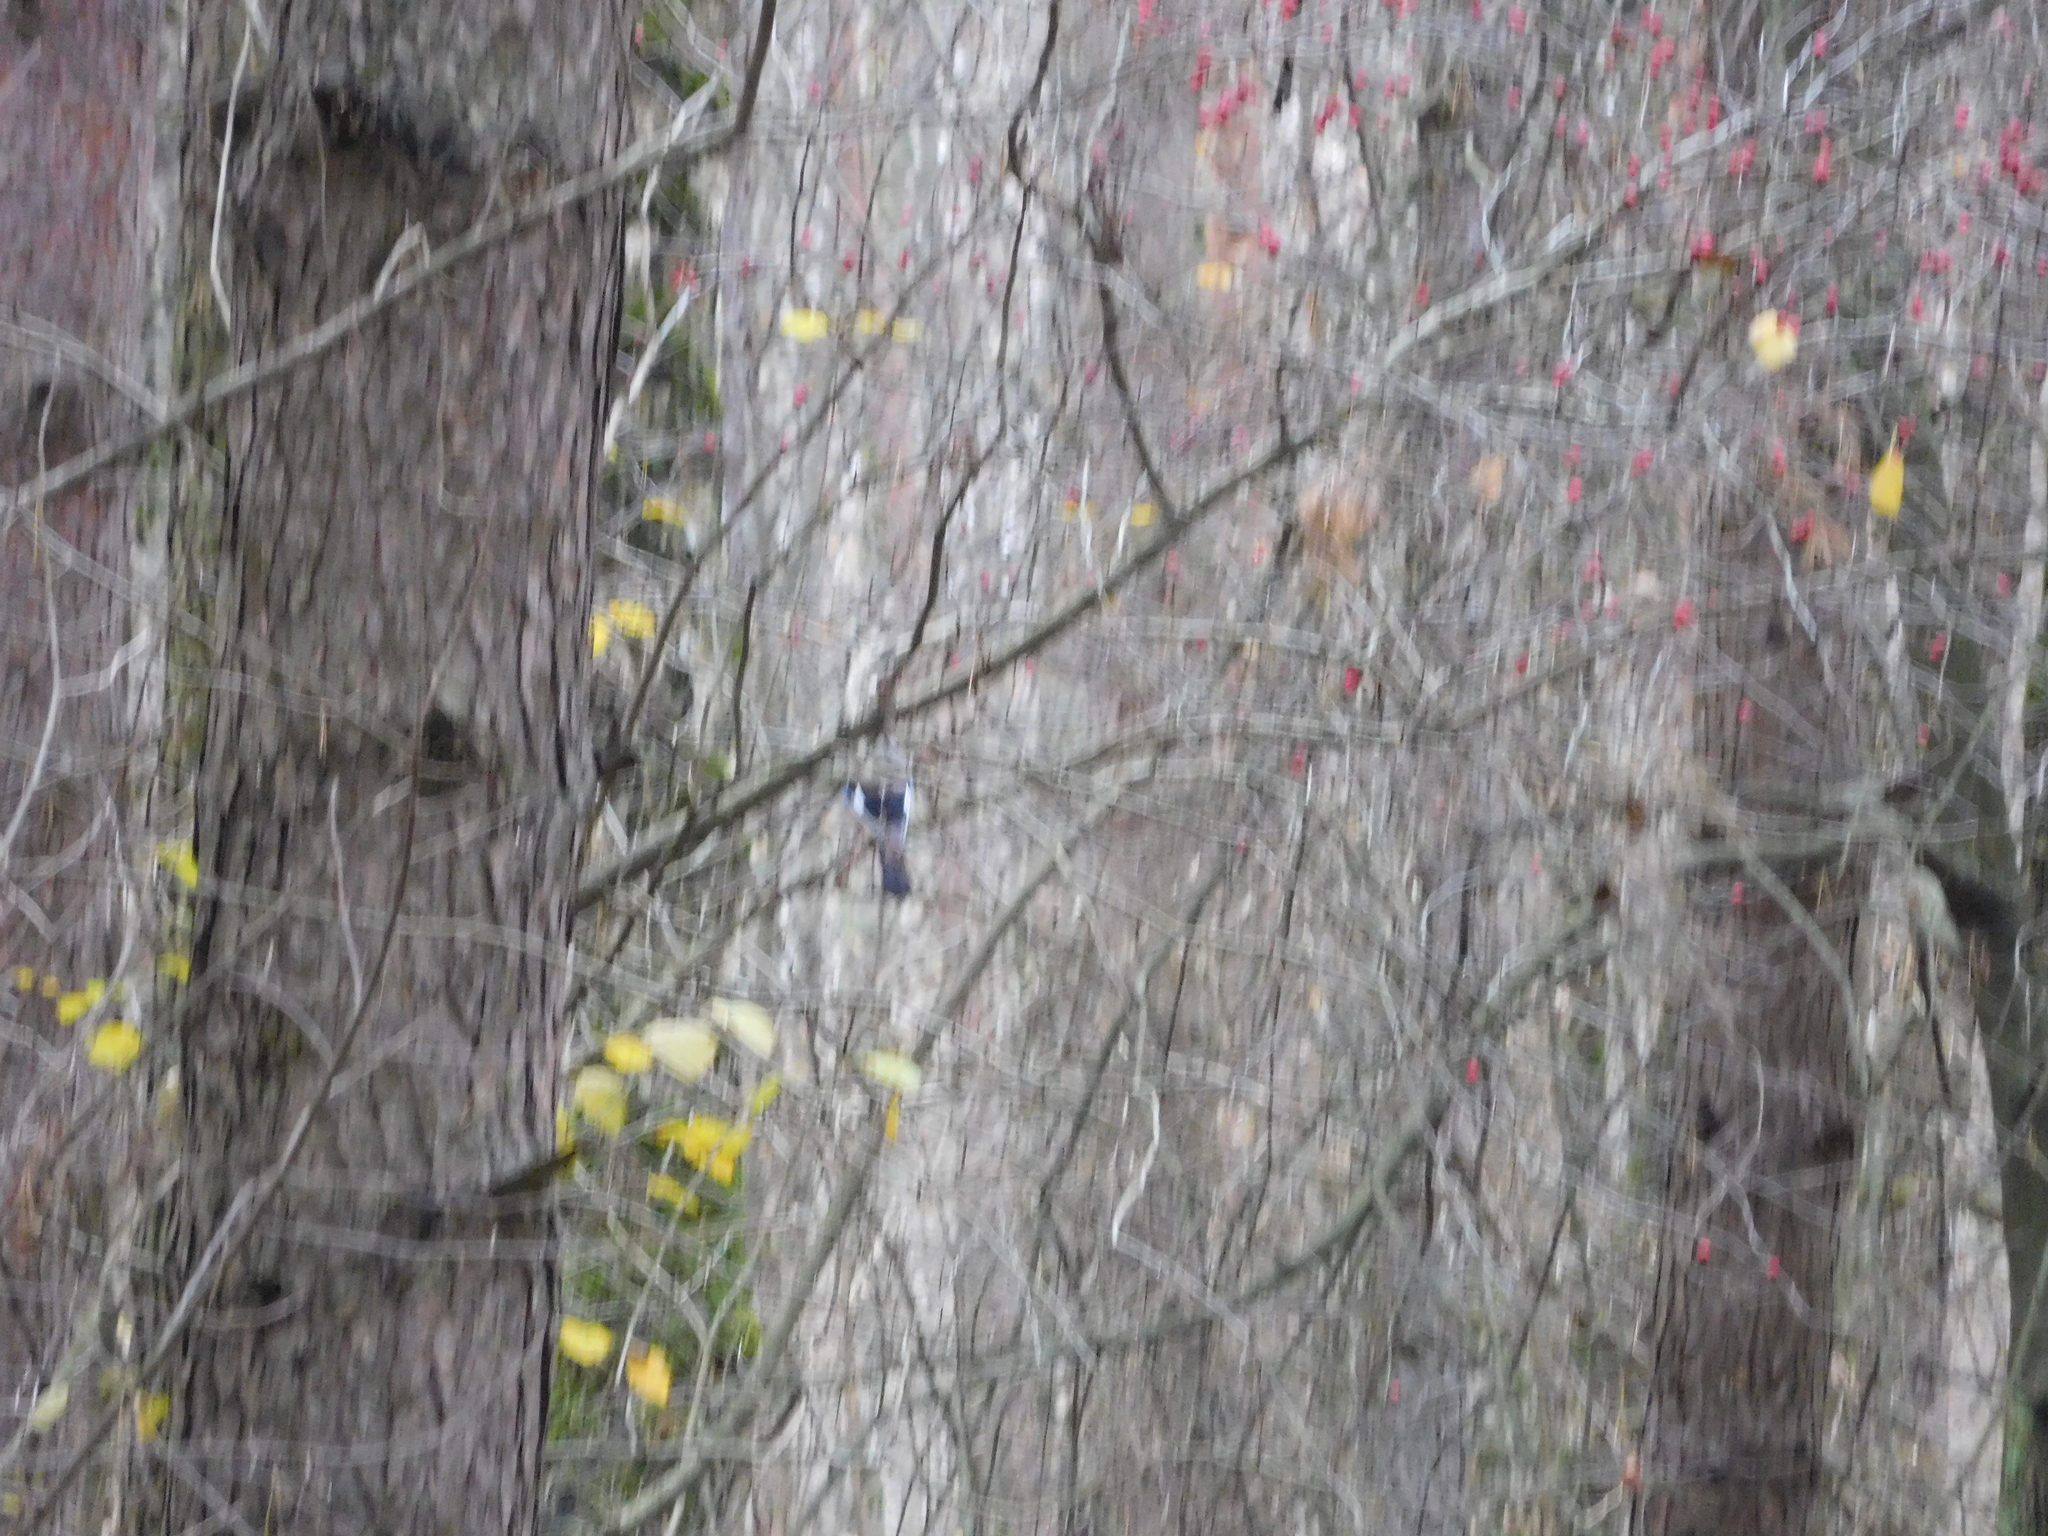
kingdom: Animalia
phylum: Chordata
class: Aves
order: Passeriformes
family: Corvidae
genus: Garrulus
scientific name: Garrulus glandarius
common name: Eurasian jay
